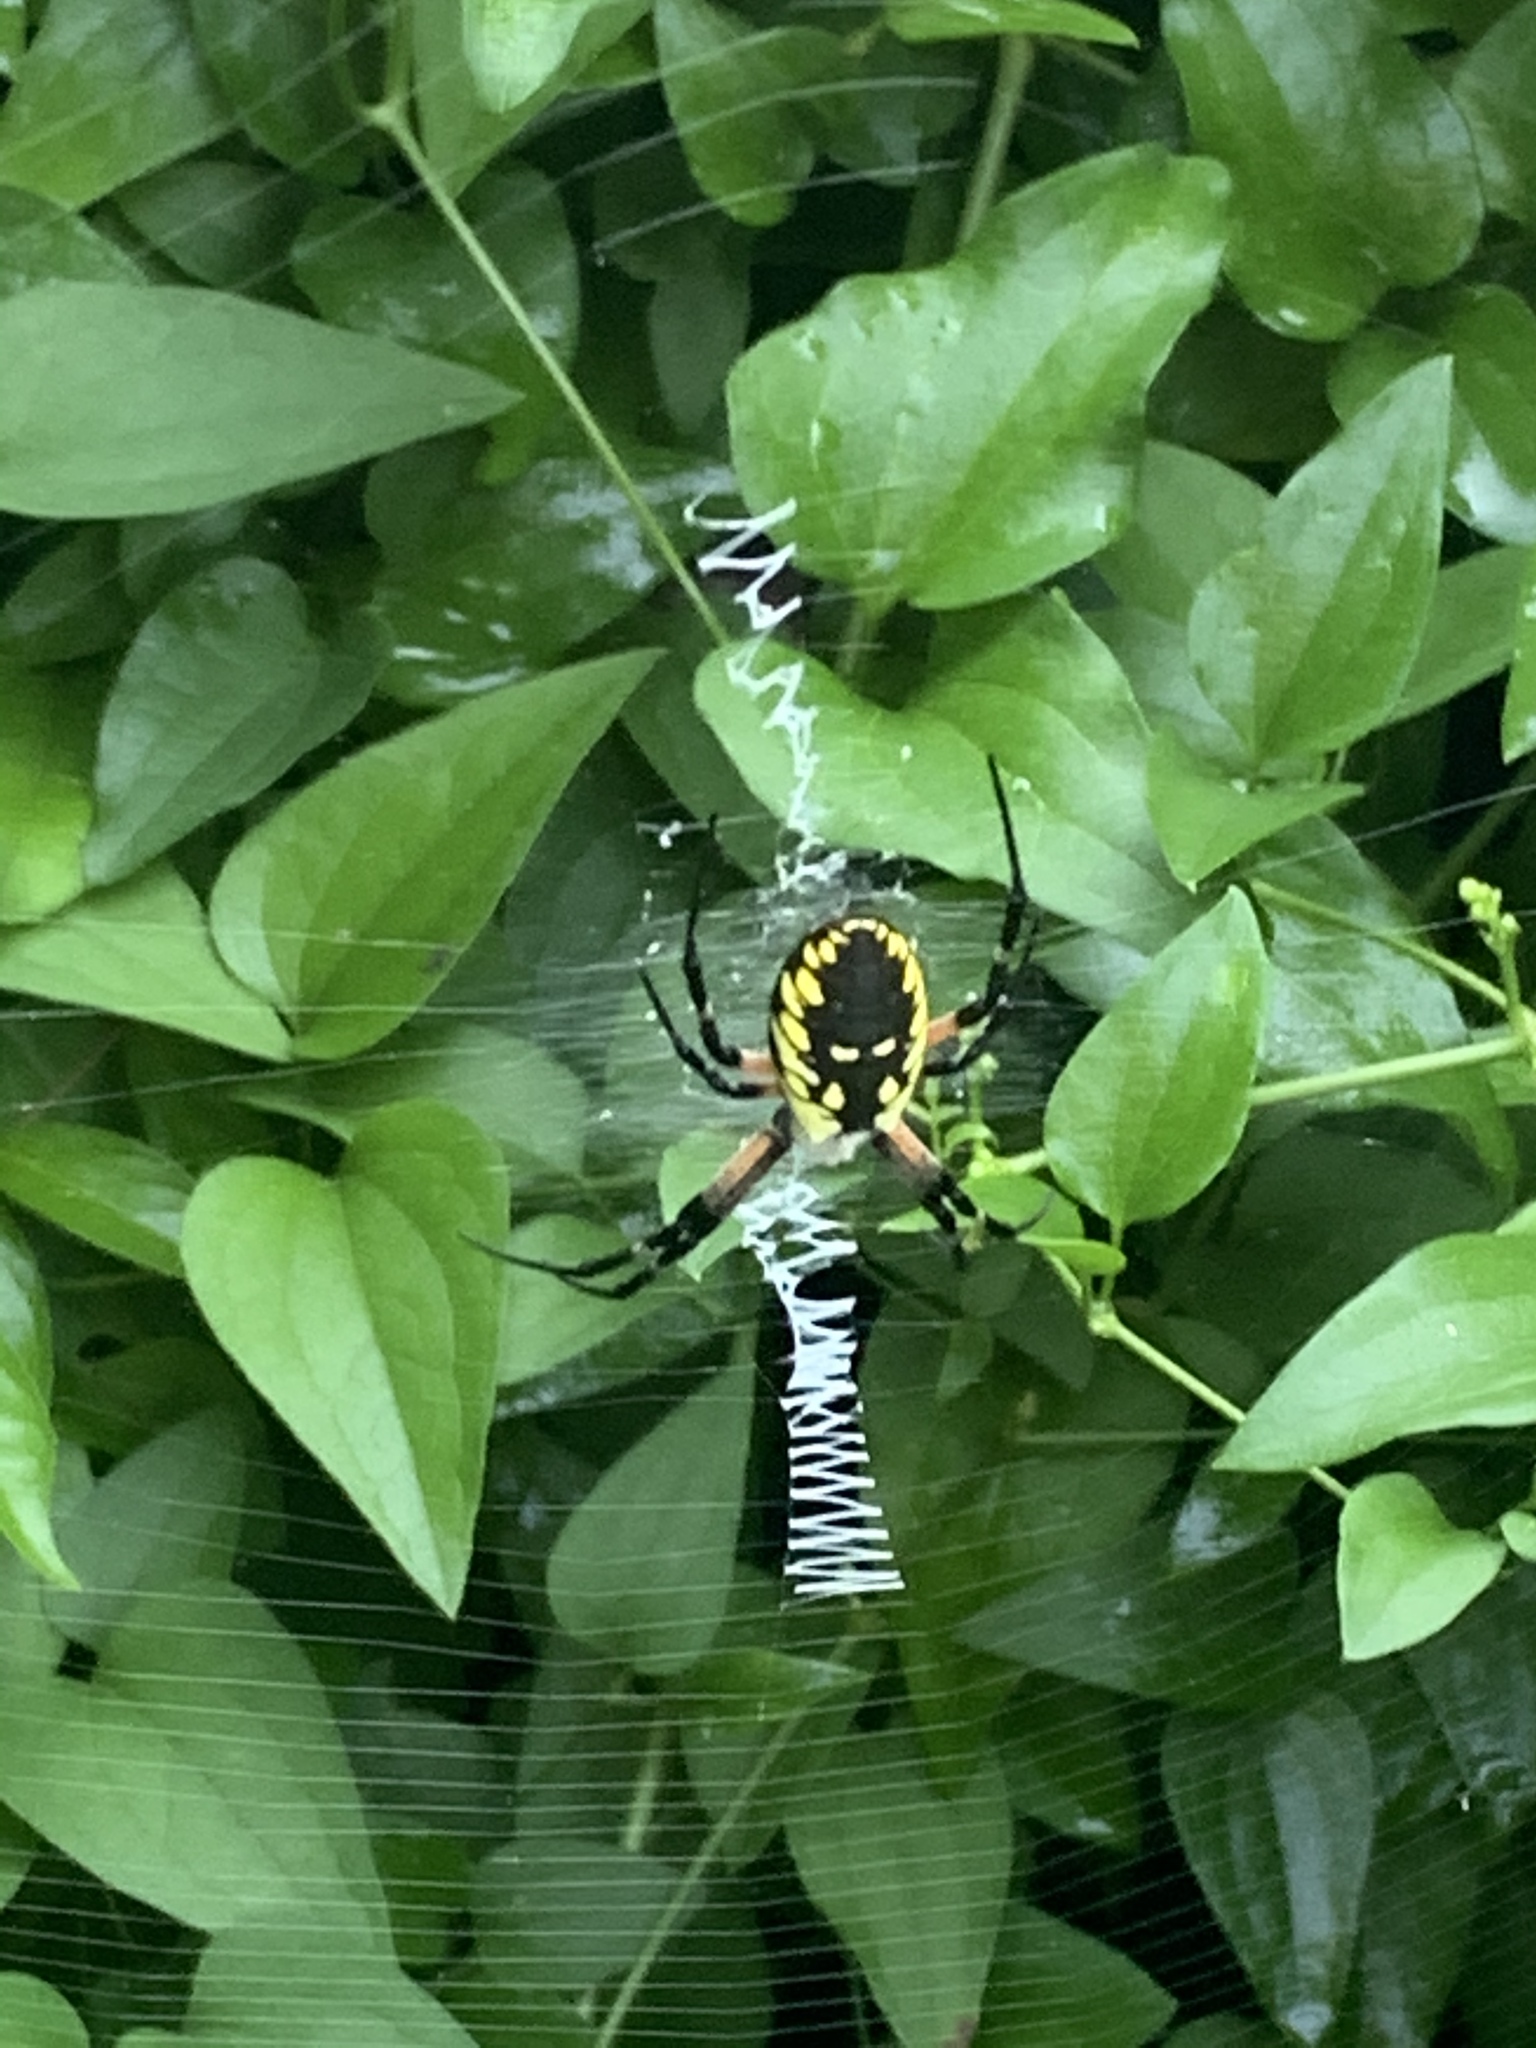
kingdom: Animalia
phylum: Arthropoda
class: Arachnida
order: Araneae
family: Araneidae
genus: Argiope
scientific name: Argiope aurantia
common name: Orb weavers
